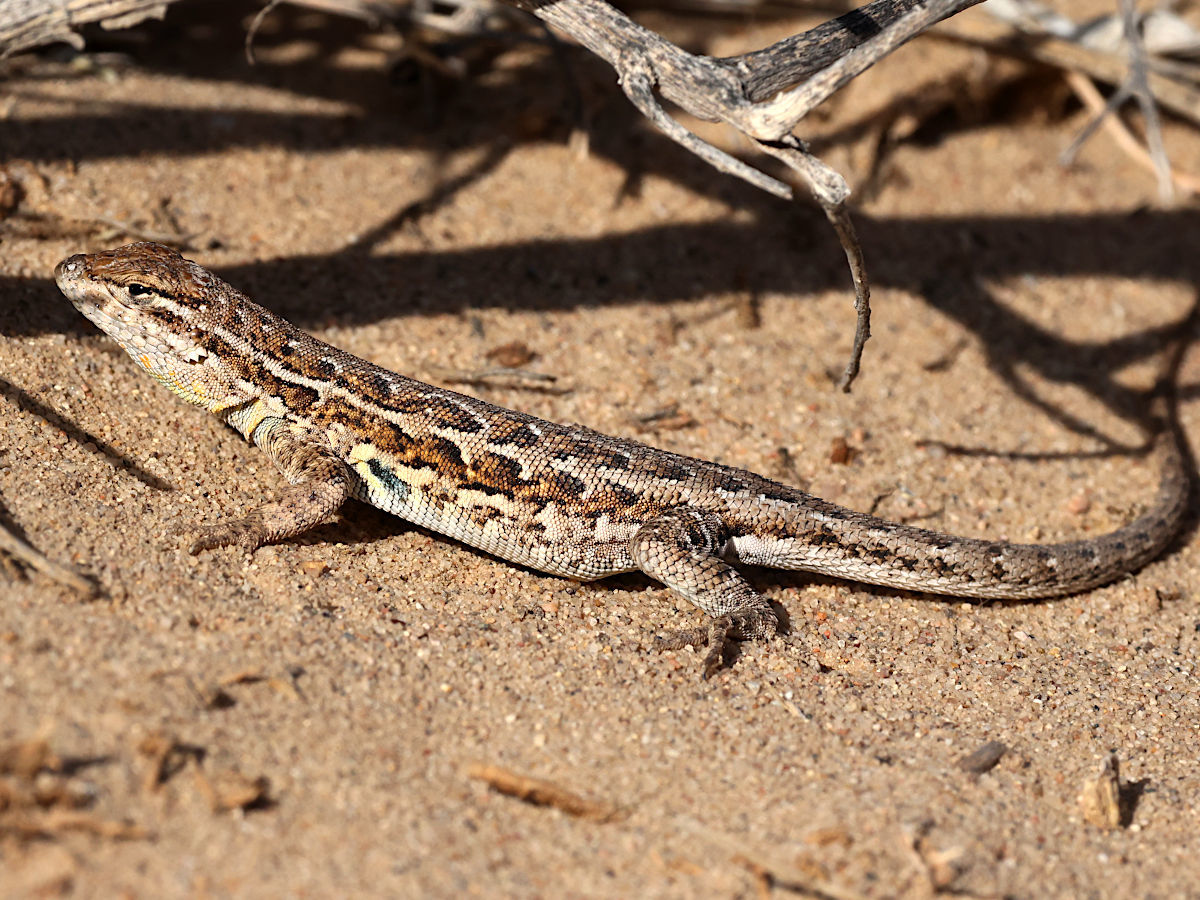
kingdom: Animalia
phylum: Chordata
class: Squamata
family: Phrynosomatidae
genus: Uta
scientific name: Uta stansburiana
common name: Side-blotched lizard
